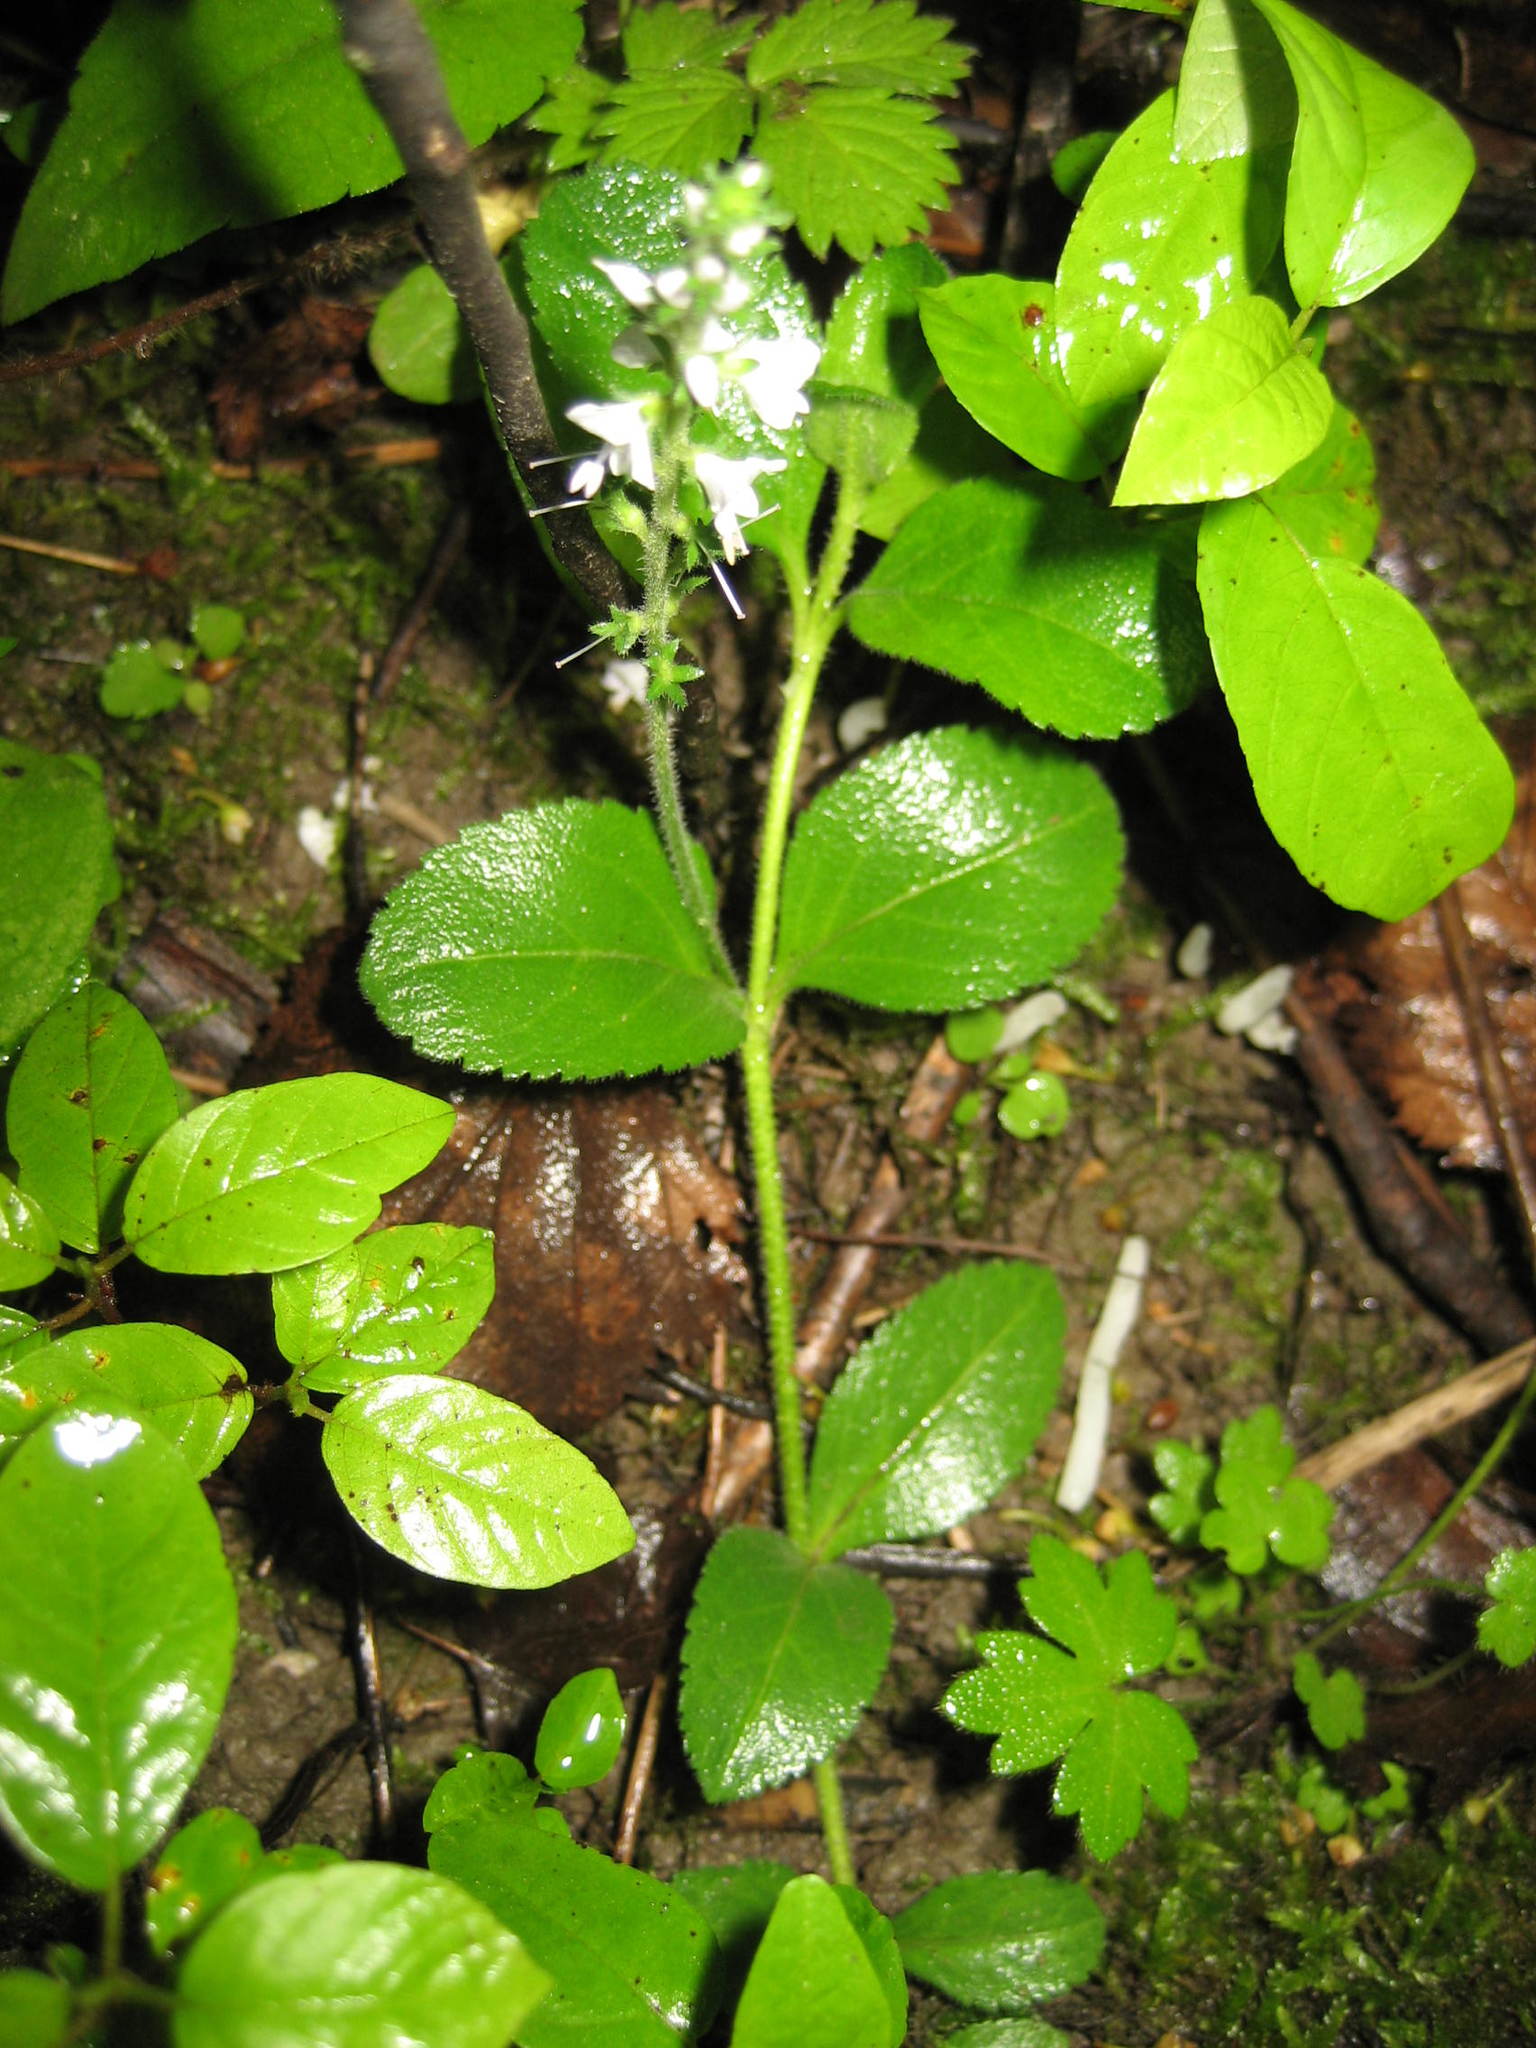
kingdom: Plantae
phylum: Tracheophyta
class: Magnoliopsida
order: Lamiales
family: Plantaginaceae
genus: Veronica
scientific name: Veronica officinalis
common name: Common speedwell
